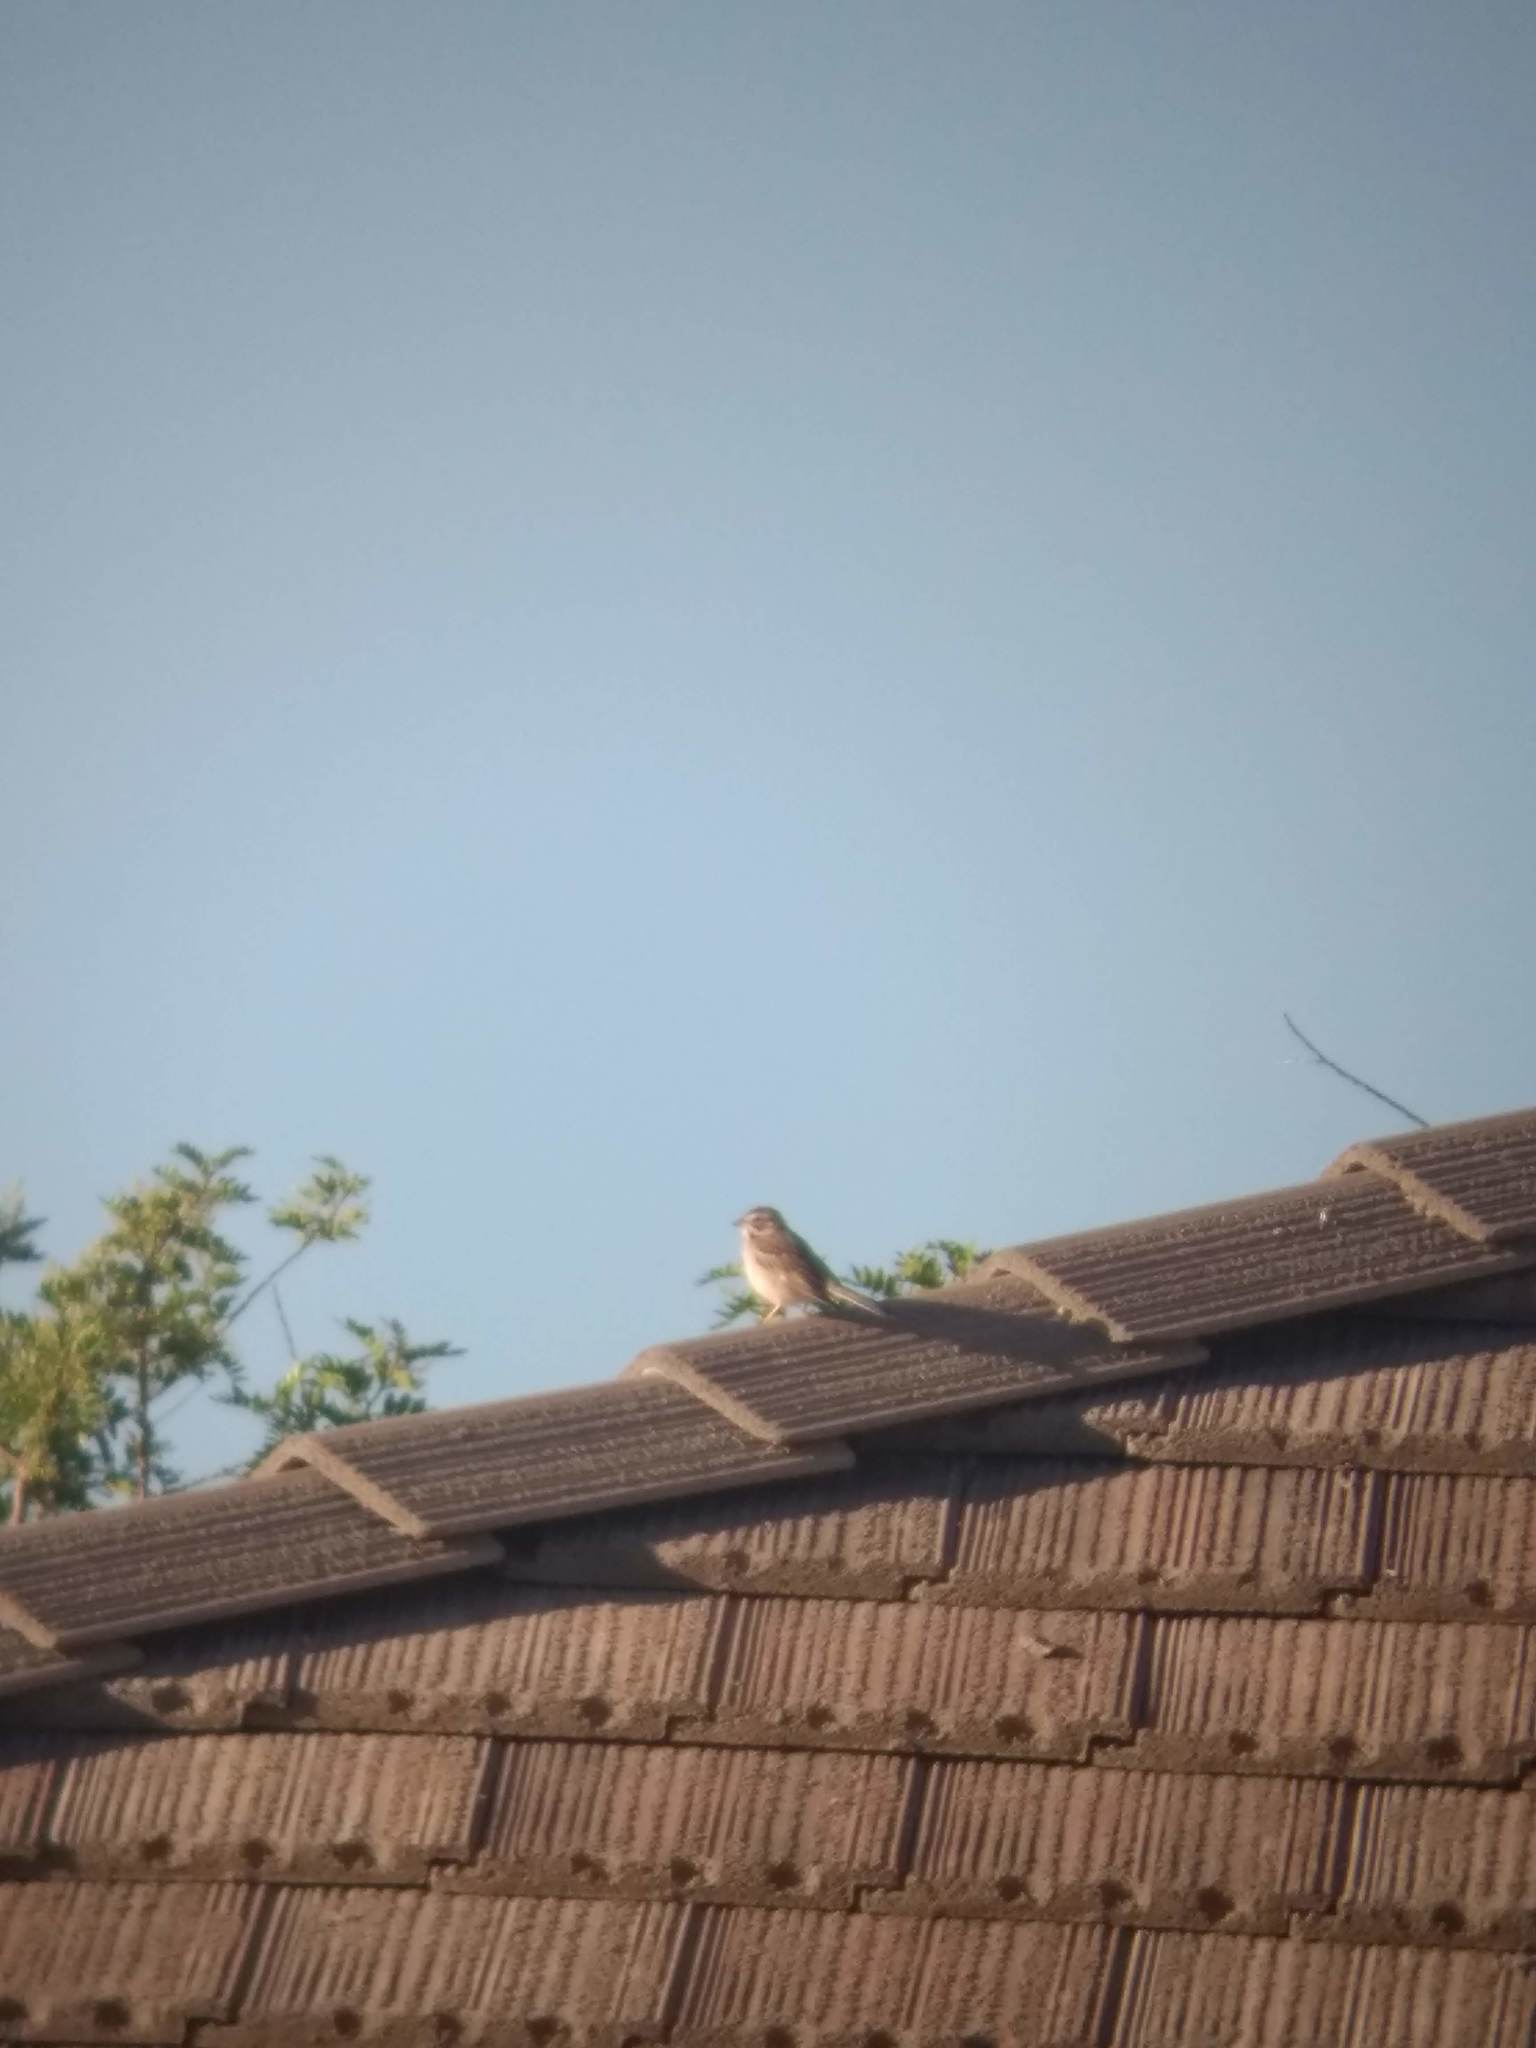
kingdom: Animalia
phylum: Chordata
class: Aves
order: Passeriformes
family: Passerellidae
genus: Chondestes
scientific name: Chondestes grammacus
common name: Lark sparrow
